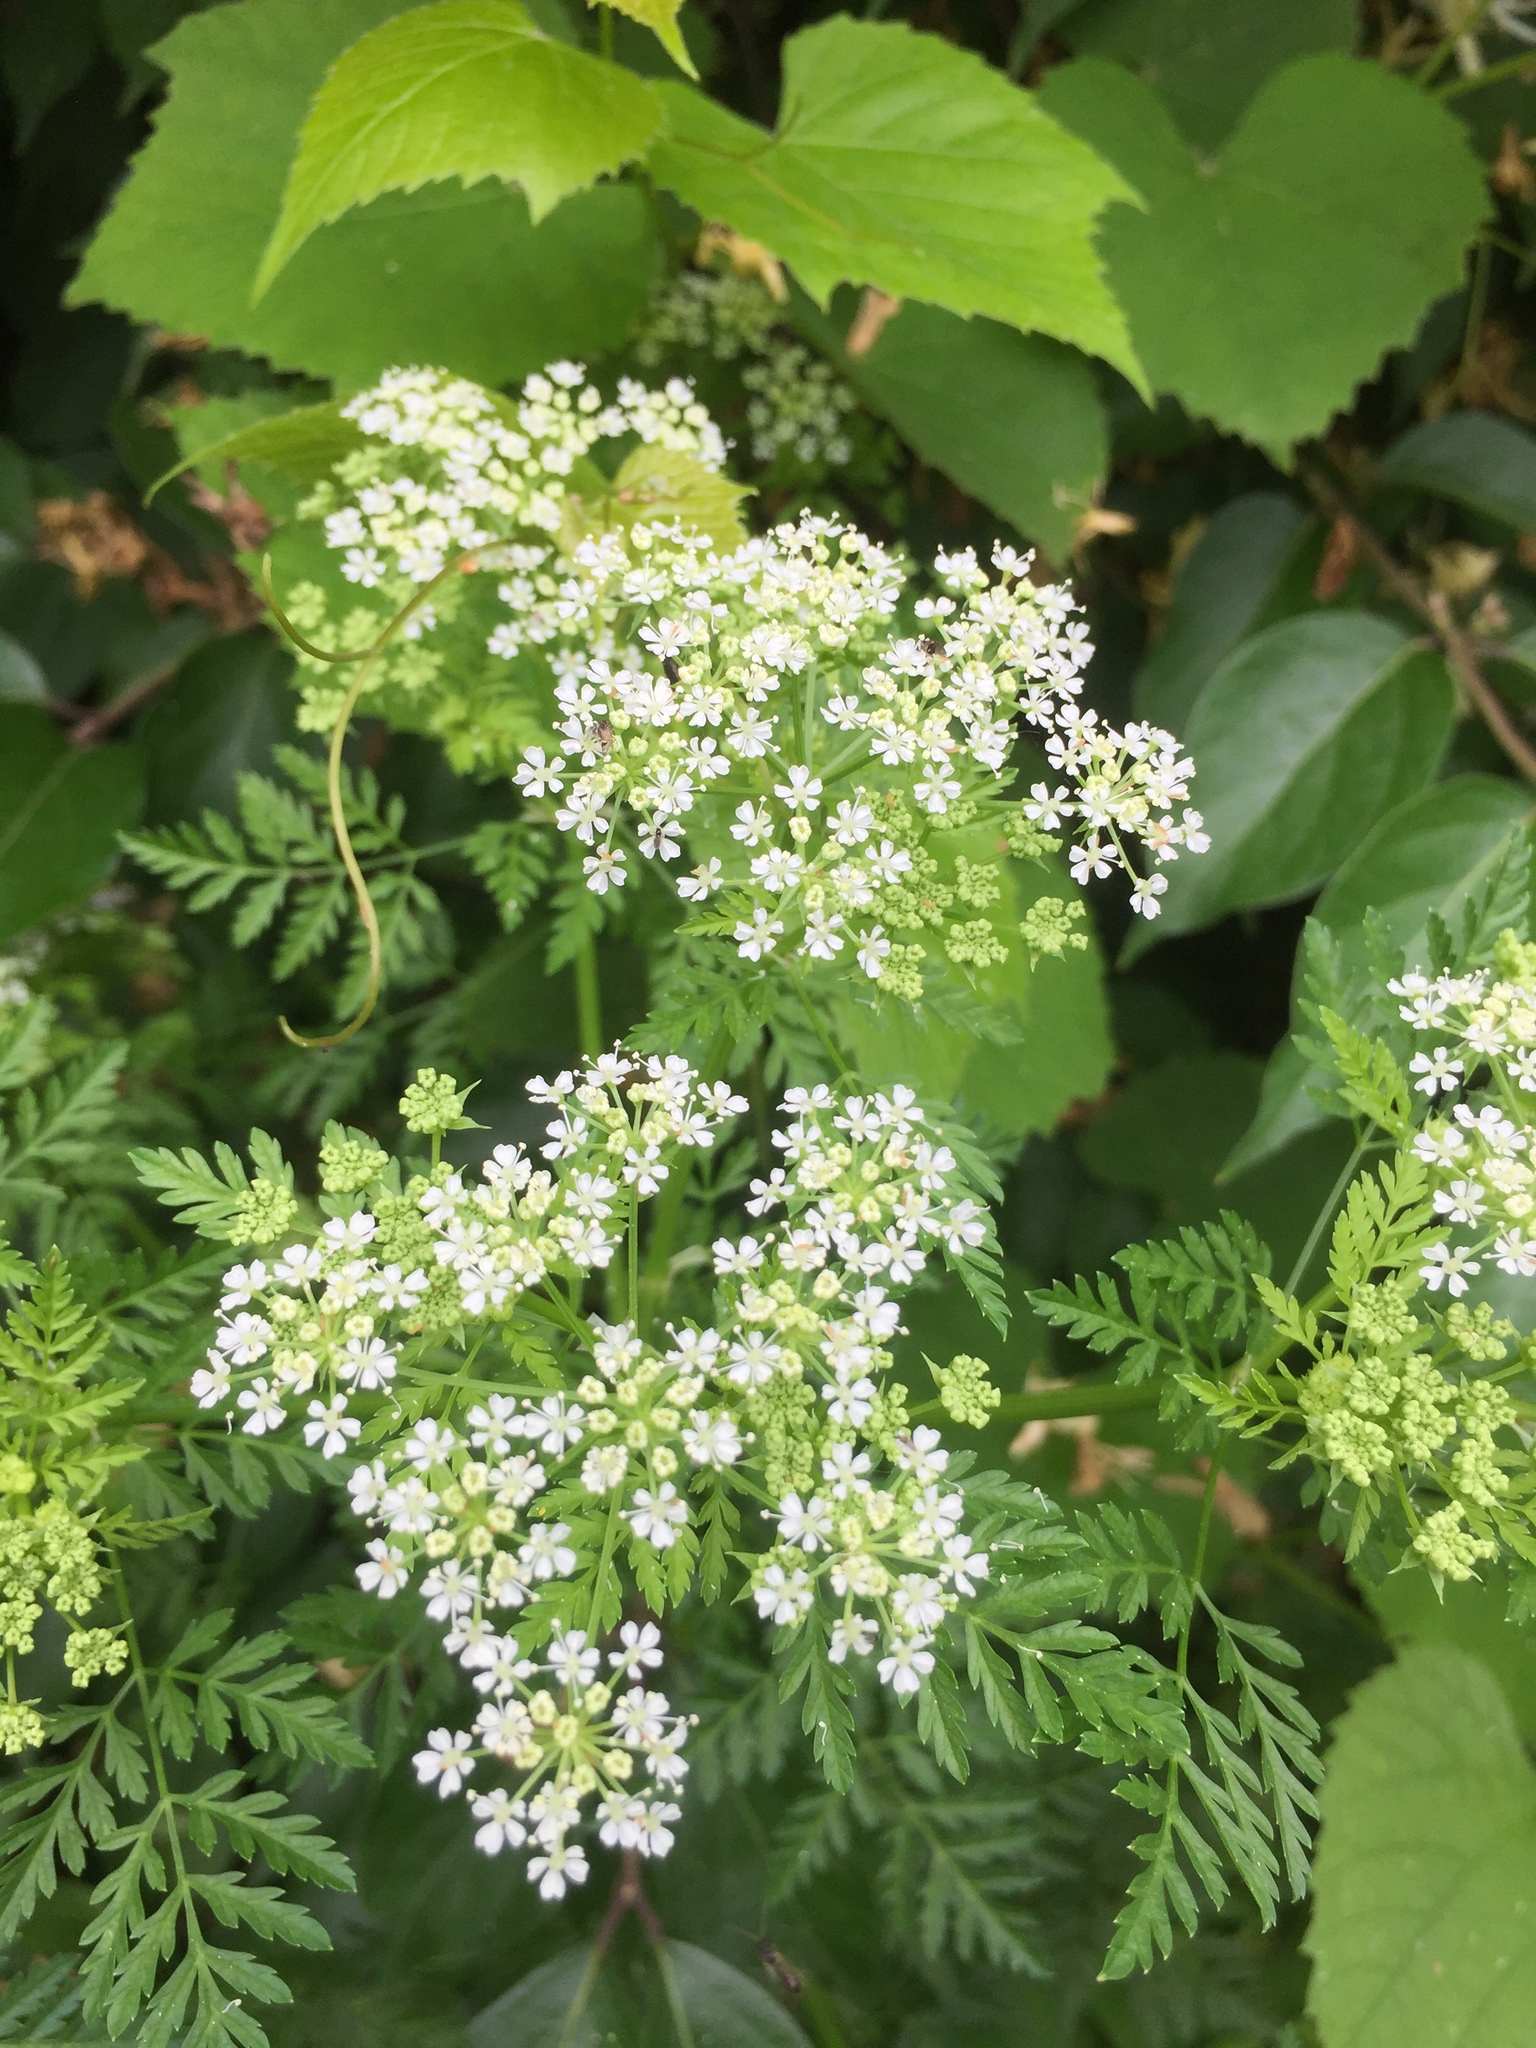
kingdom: Plantae
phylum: Tracheophyta
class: Magnoliopsida
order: Apiales
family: Apiaceae
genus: Conium
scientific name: Conium maculatum
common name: Hemlock
